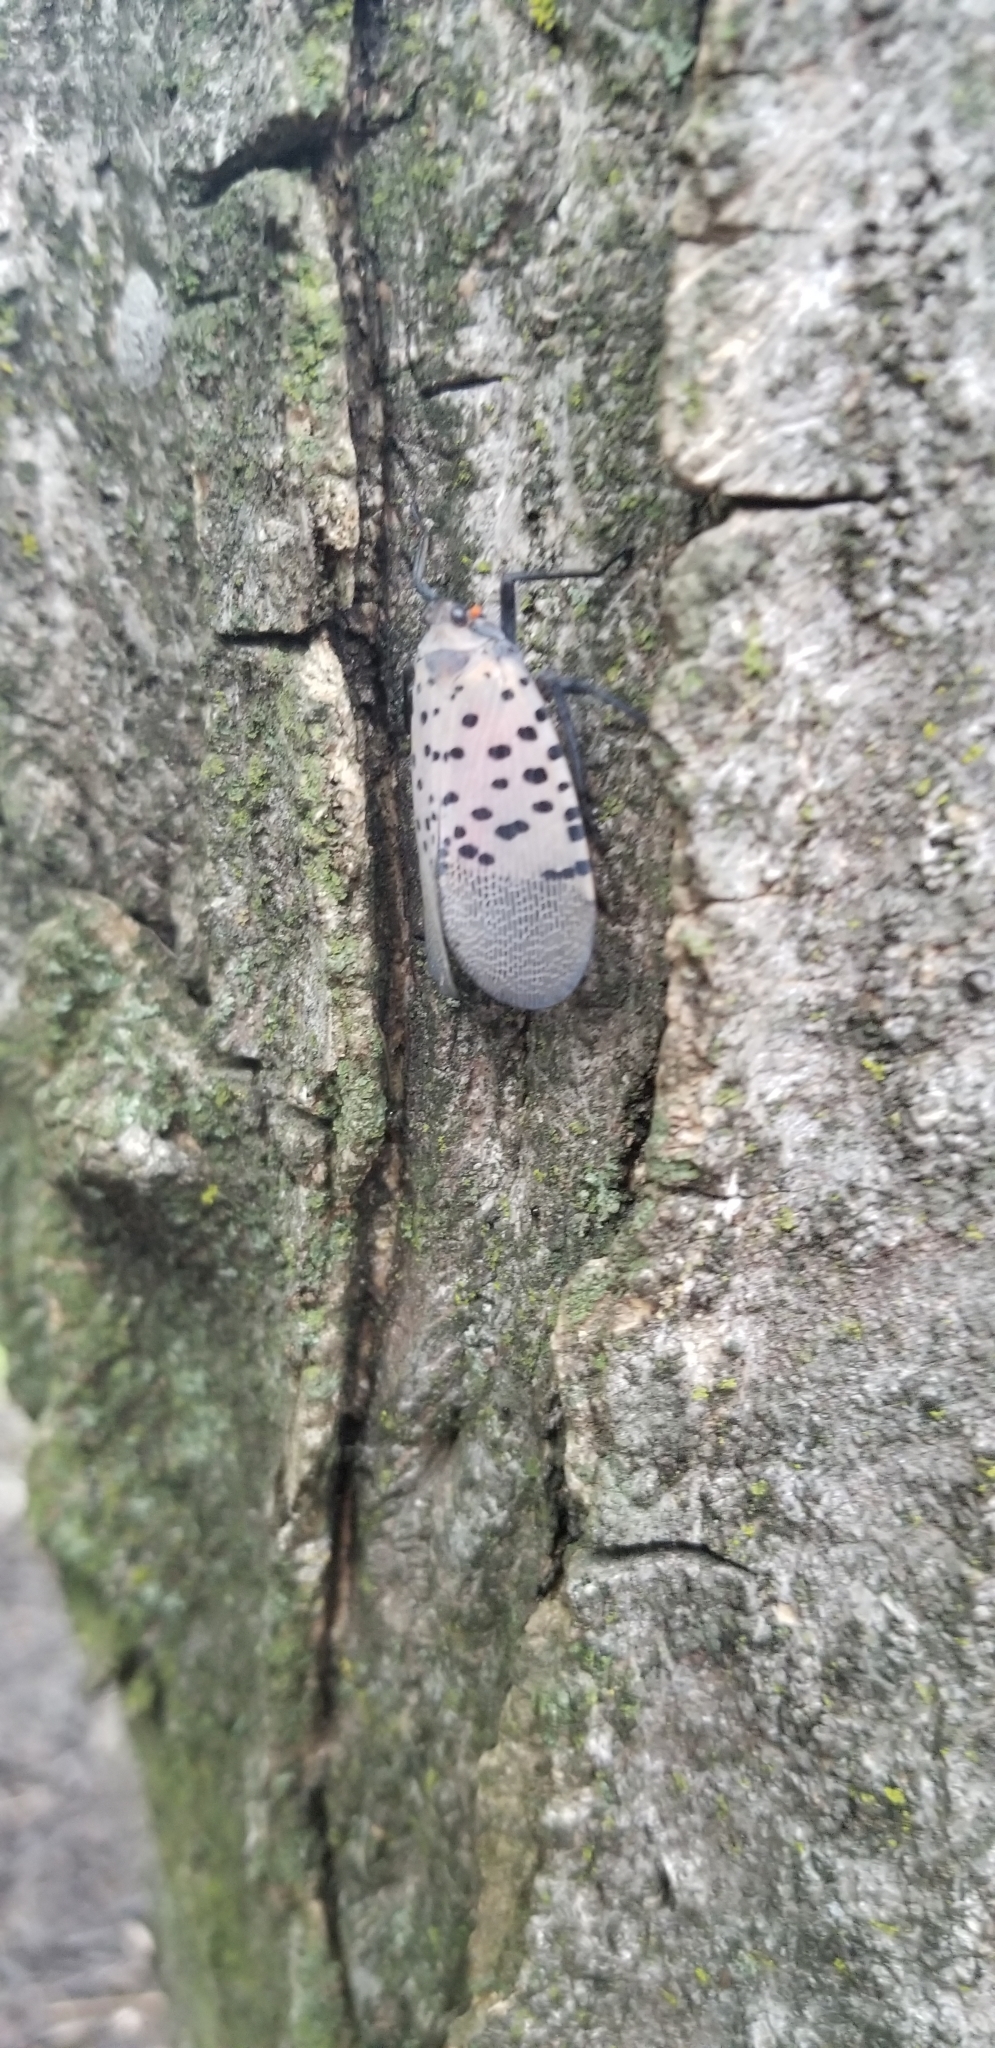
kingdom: Animalia
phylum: Arthropoda
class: Insecta
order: Hemiptera
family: Fulgoridae
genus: Lycorma
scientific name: Lycorma delicatula
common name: Spotted lanternfly
